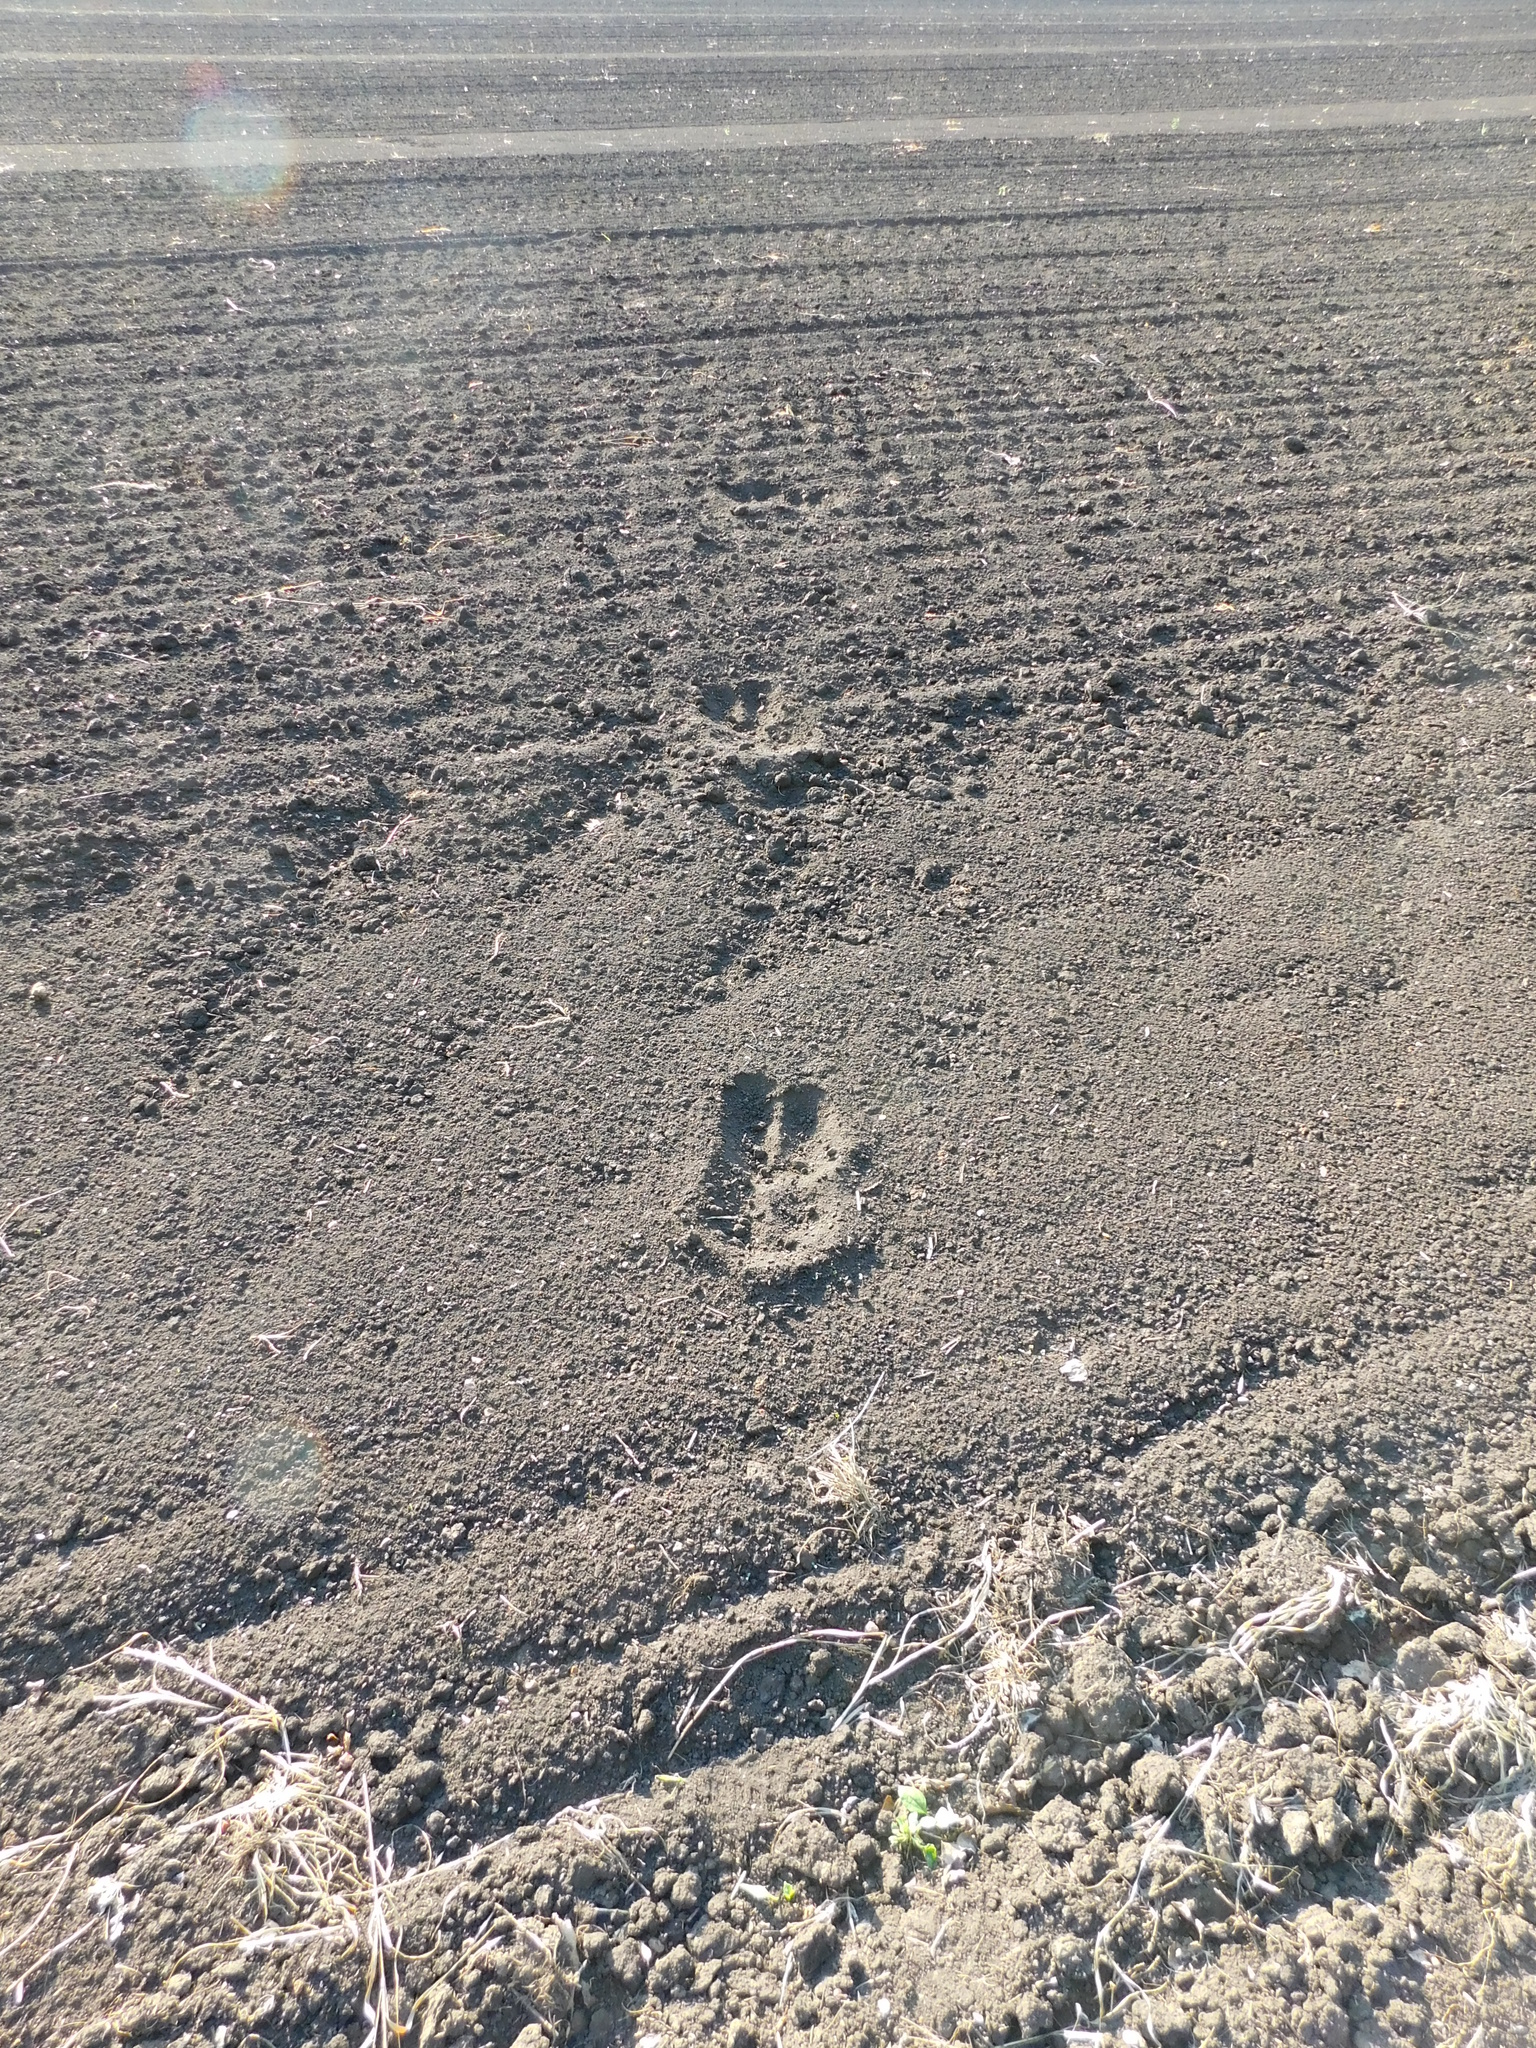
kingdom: Animalia
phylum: Chordata
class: Mammalia
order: Artiodactyla
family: Cervidae
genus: Alces
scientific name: Alces alces
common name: Moose
